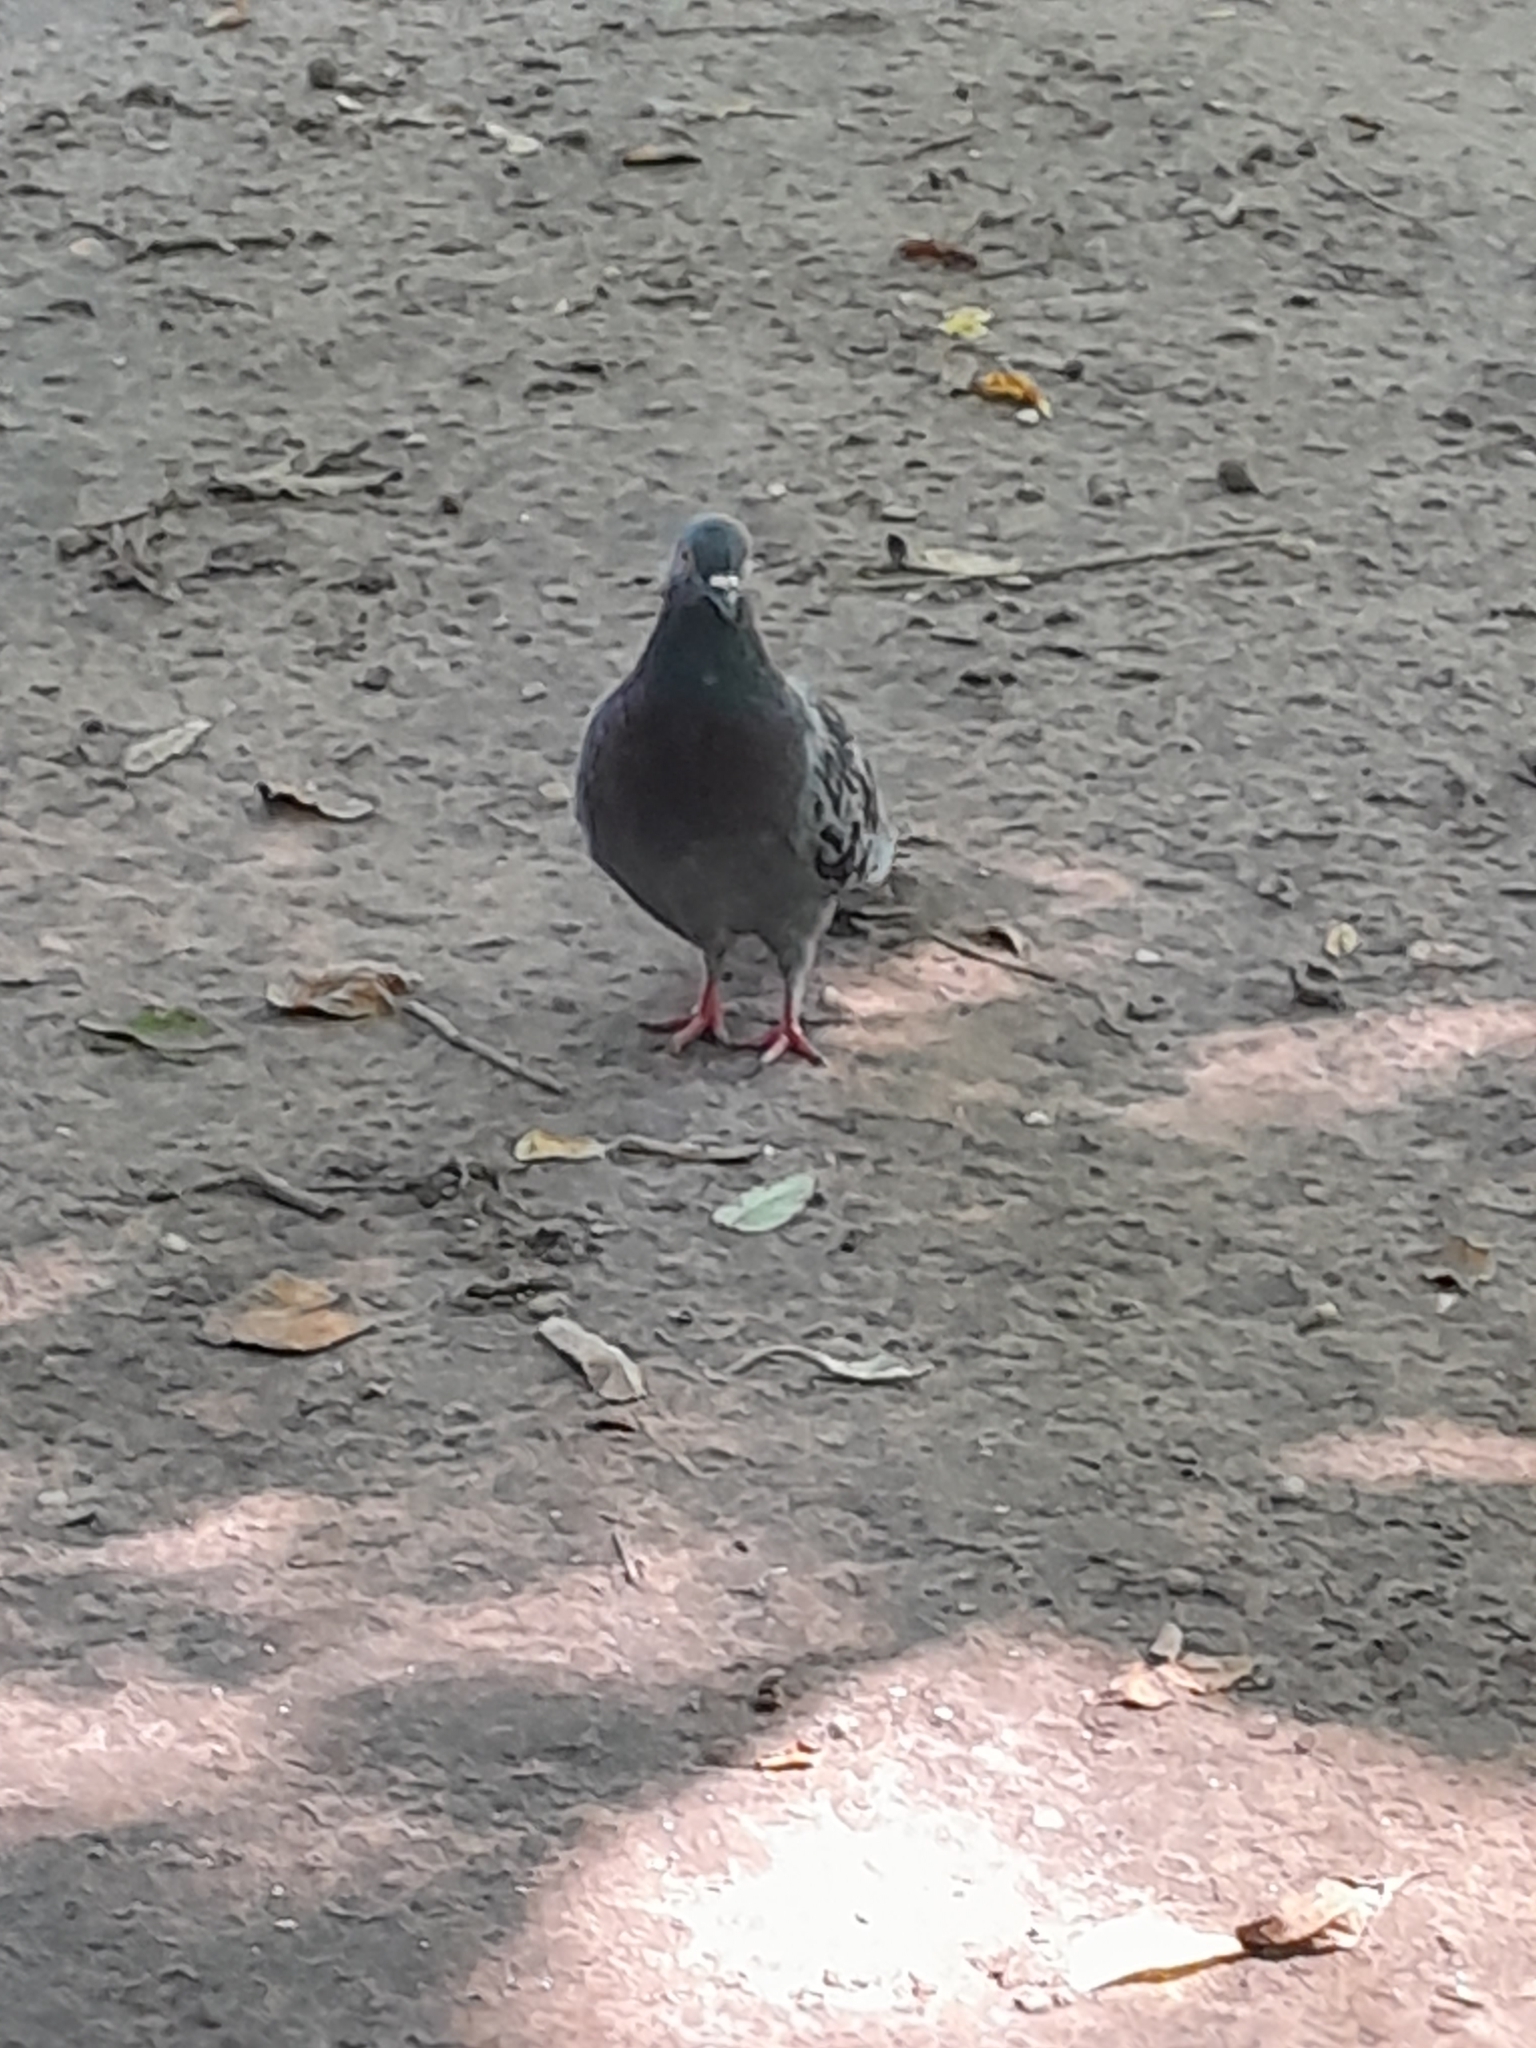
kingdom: Animalia
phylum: Chordata
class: Aves
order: Columbiformes
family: Columbidae
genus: Columba
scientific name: Columba livia
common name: Rock pigeon
